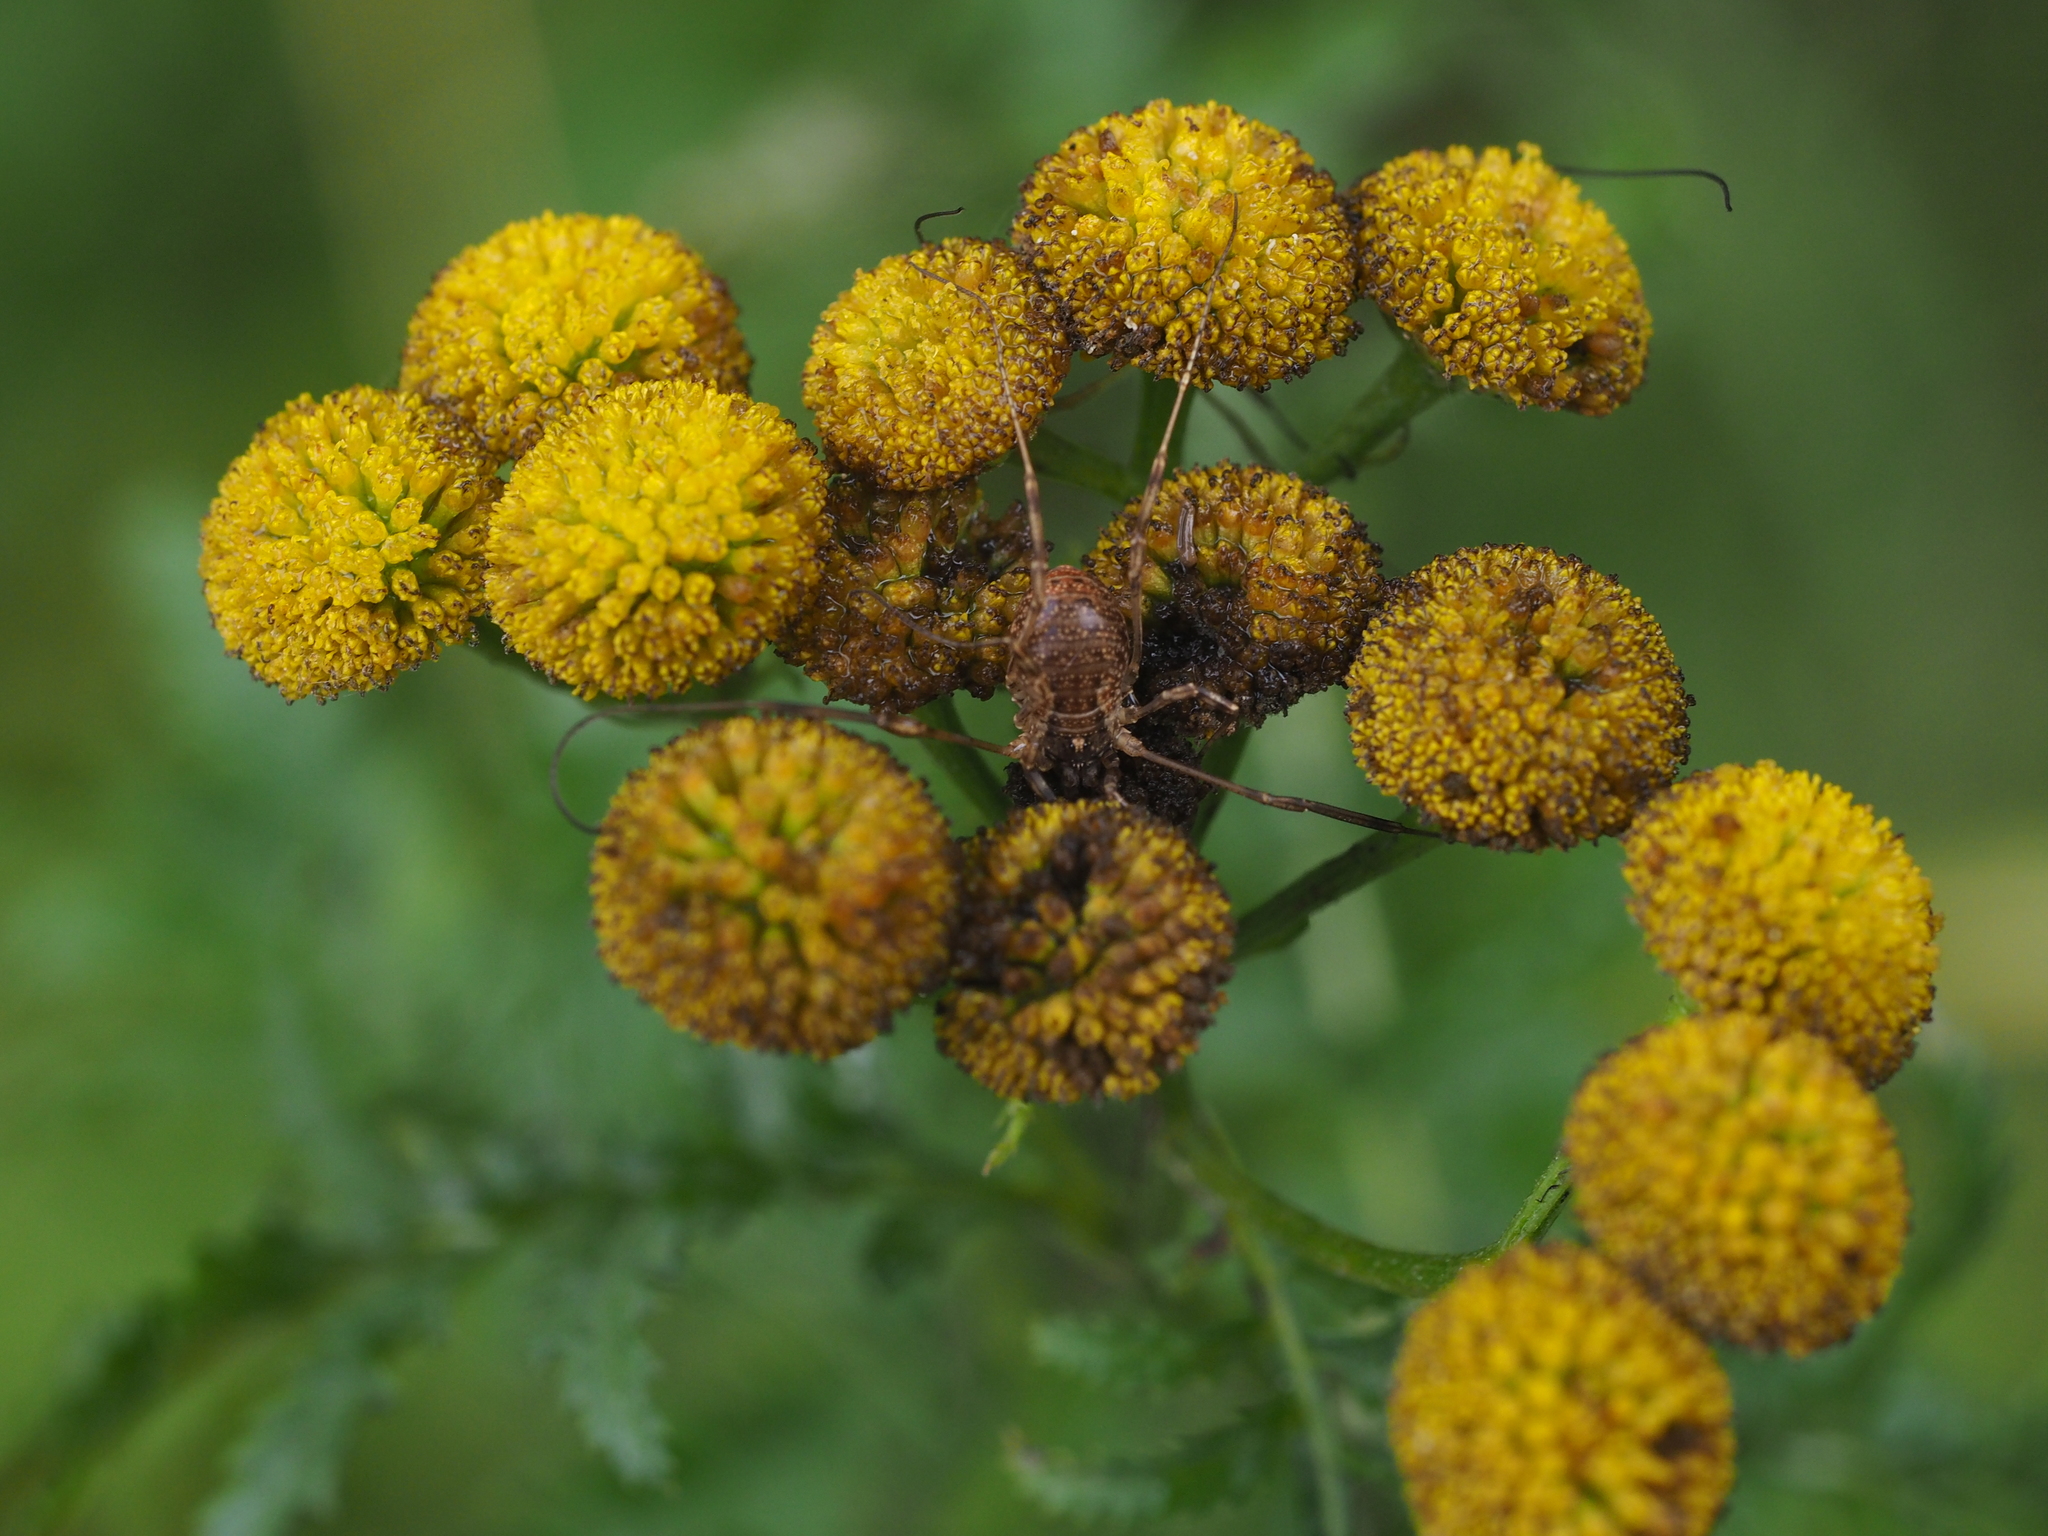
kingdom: Animalia
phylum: Arthropoda
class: Arachnida
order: Opiliones
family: Phalangiidae
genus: Oligolophus
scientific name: Oligolophus tridens
